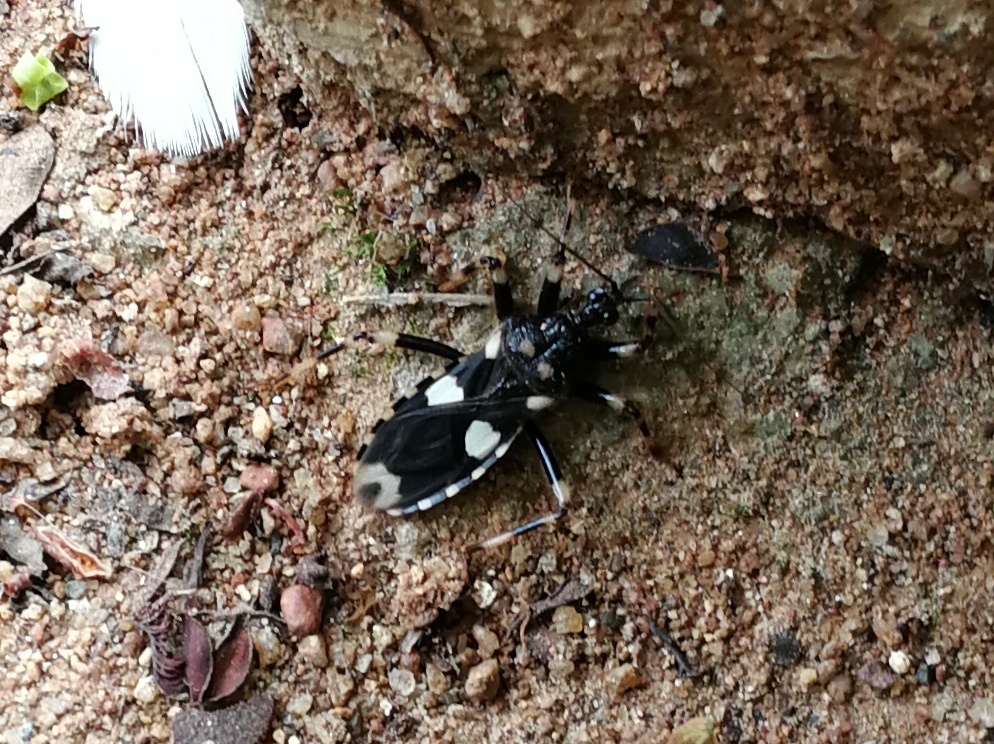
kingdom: Animalia
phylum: Arthropoda
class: Insecta
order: Hemiptera
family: Reduviidae
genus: Acanthaspis
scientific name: Acanthaspis rama
